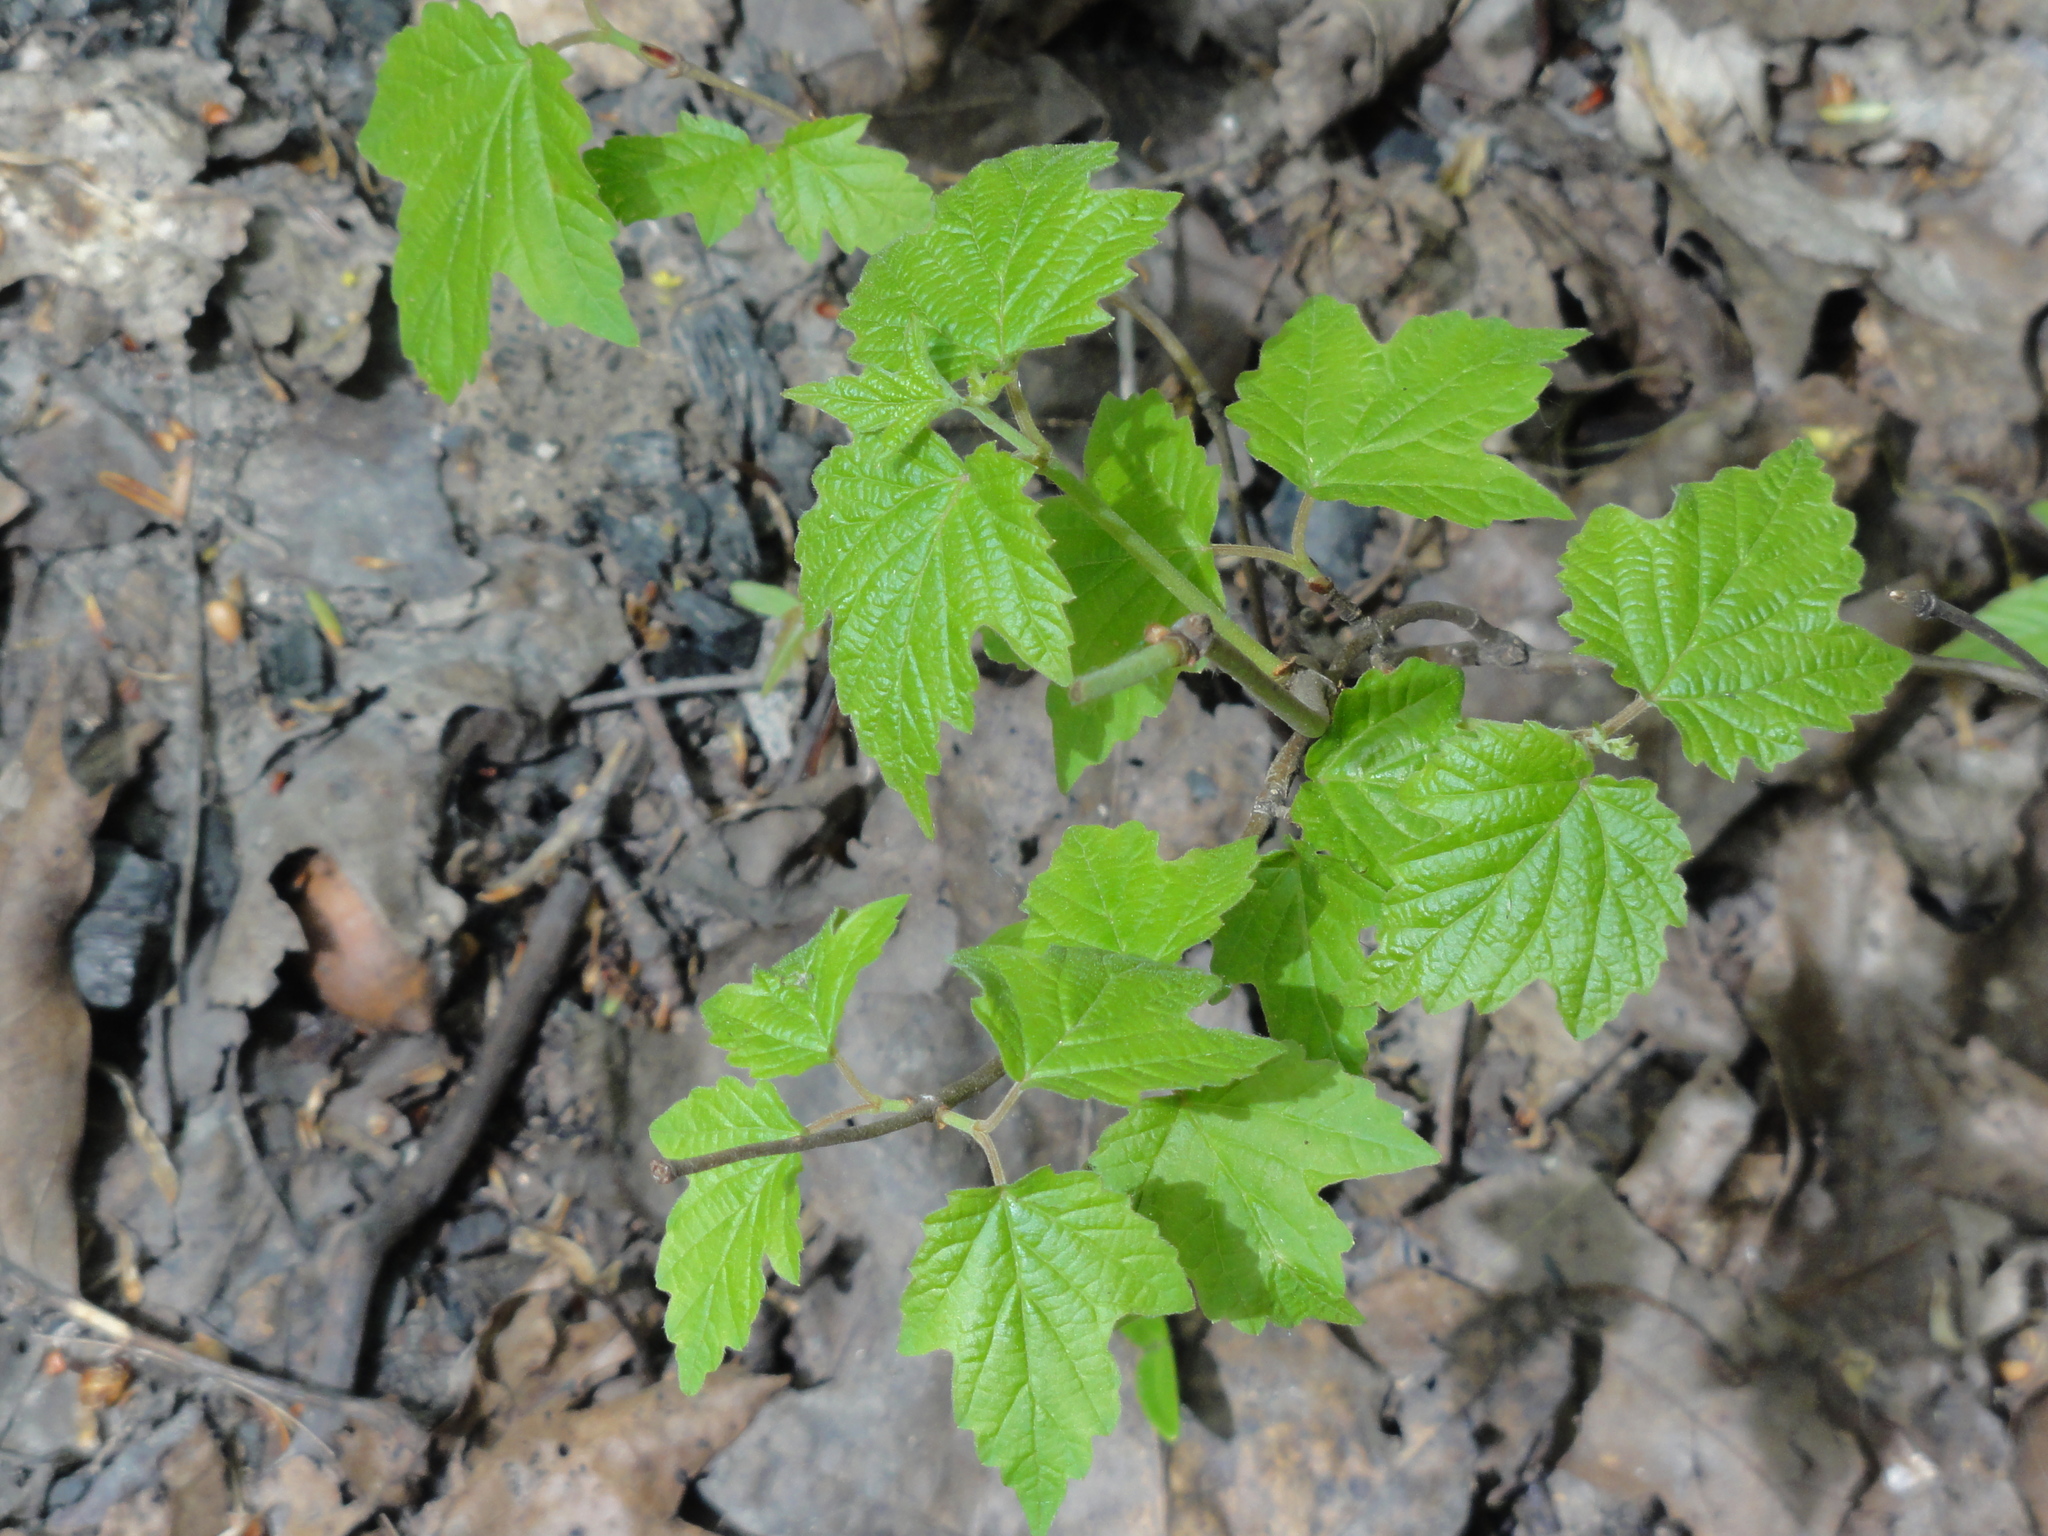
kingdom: Plantae
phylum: Tracheophyta
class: Magnoliopsida
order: Dipsacales
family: Viburnaceae
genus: Viburnum
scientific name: Viburnum acerifolium
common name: Dockmackie
